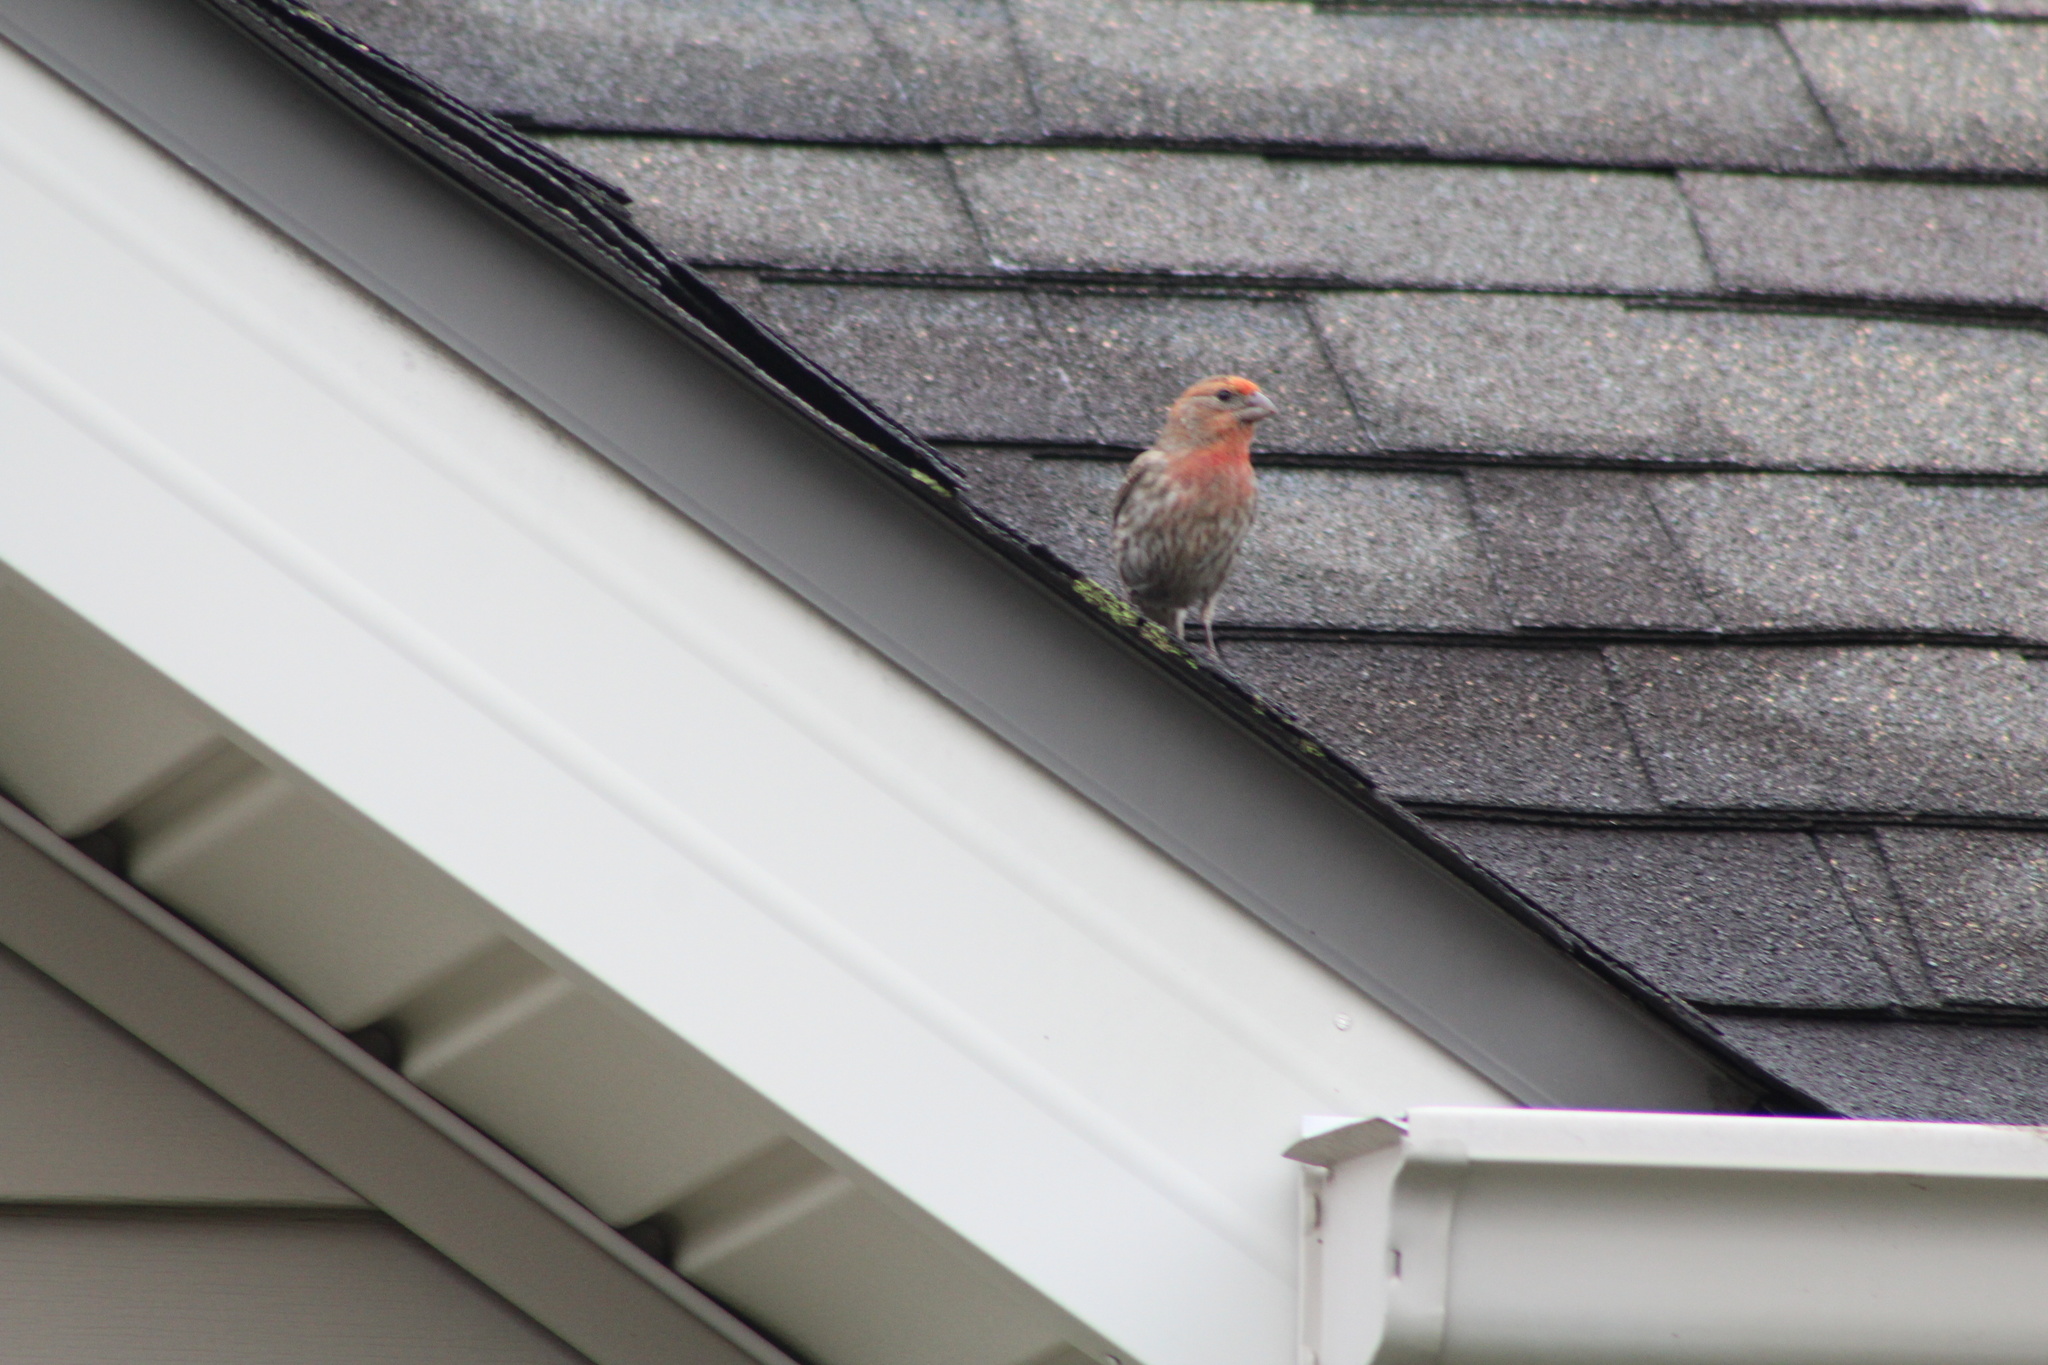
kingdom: Animalia
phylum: Chordata
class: Aves
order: Passeriformes
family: Fringillidae
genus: Haemorhous
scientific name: Haemorhous mexicanus
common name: House finch
